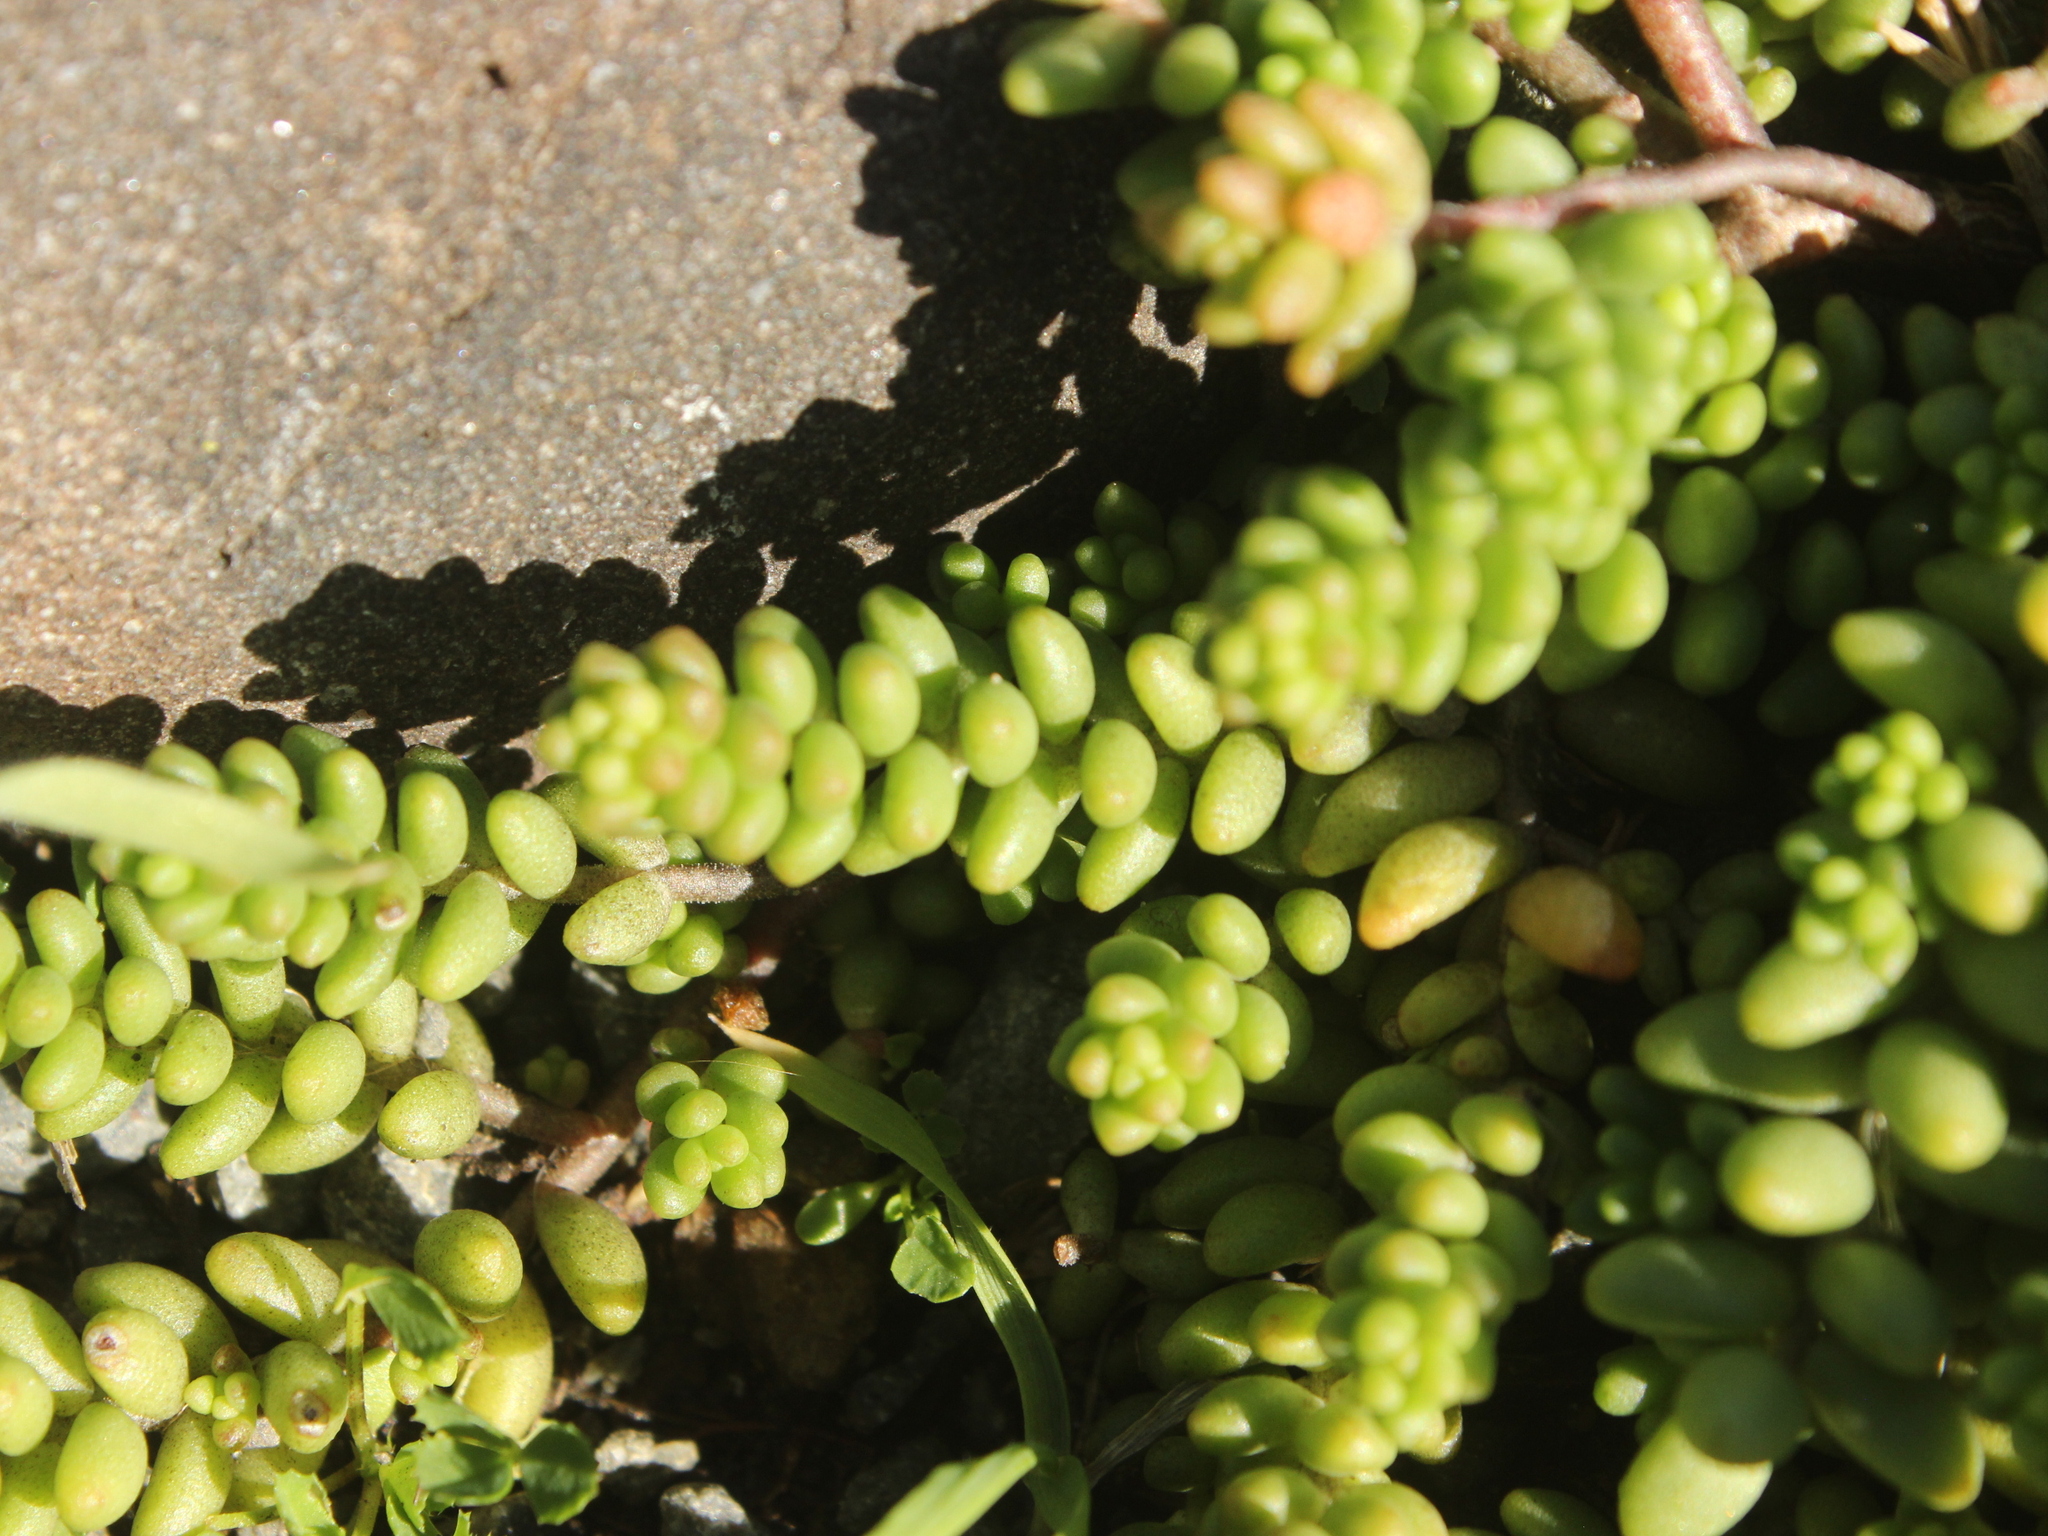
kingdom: Plantae
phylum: Tracheophyta
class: Magnoliopsida
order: Saxifragales
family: Crassulaceae
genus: Sedum
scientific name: Sedum album
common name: White stonecrop
